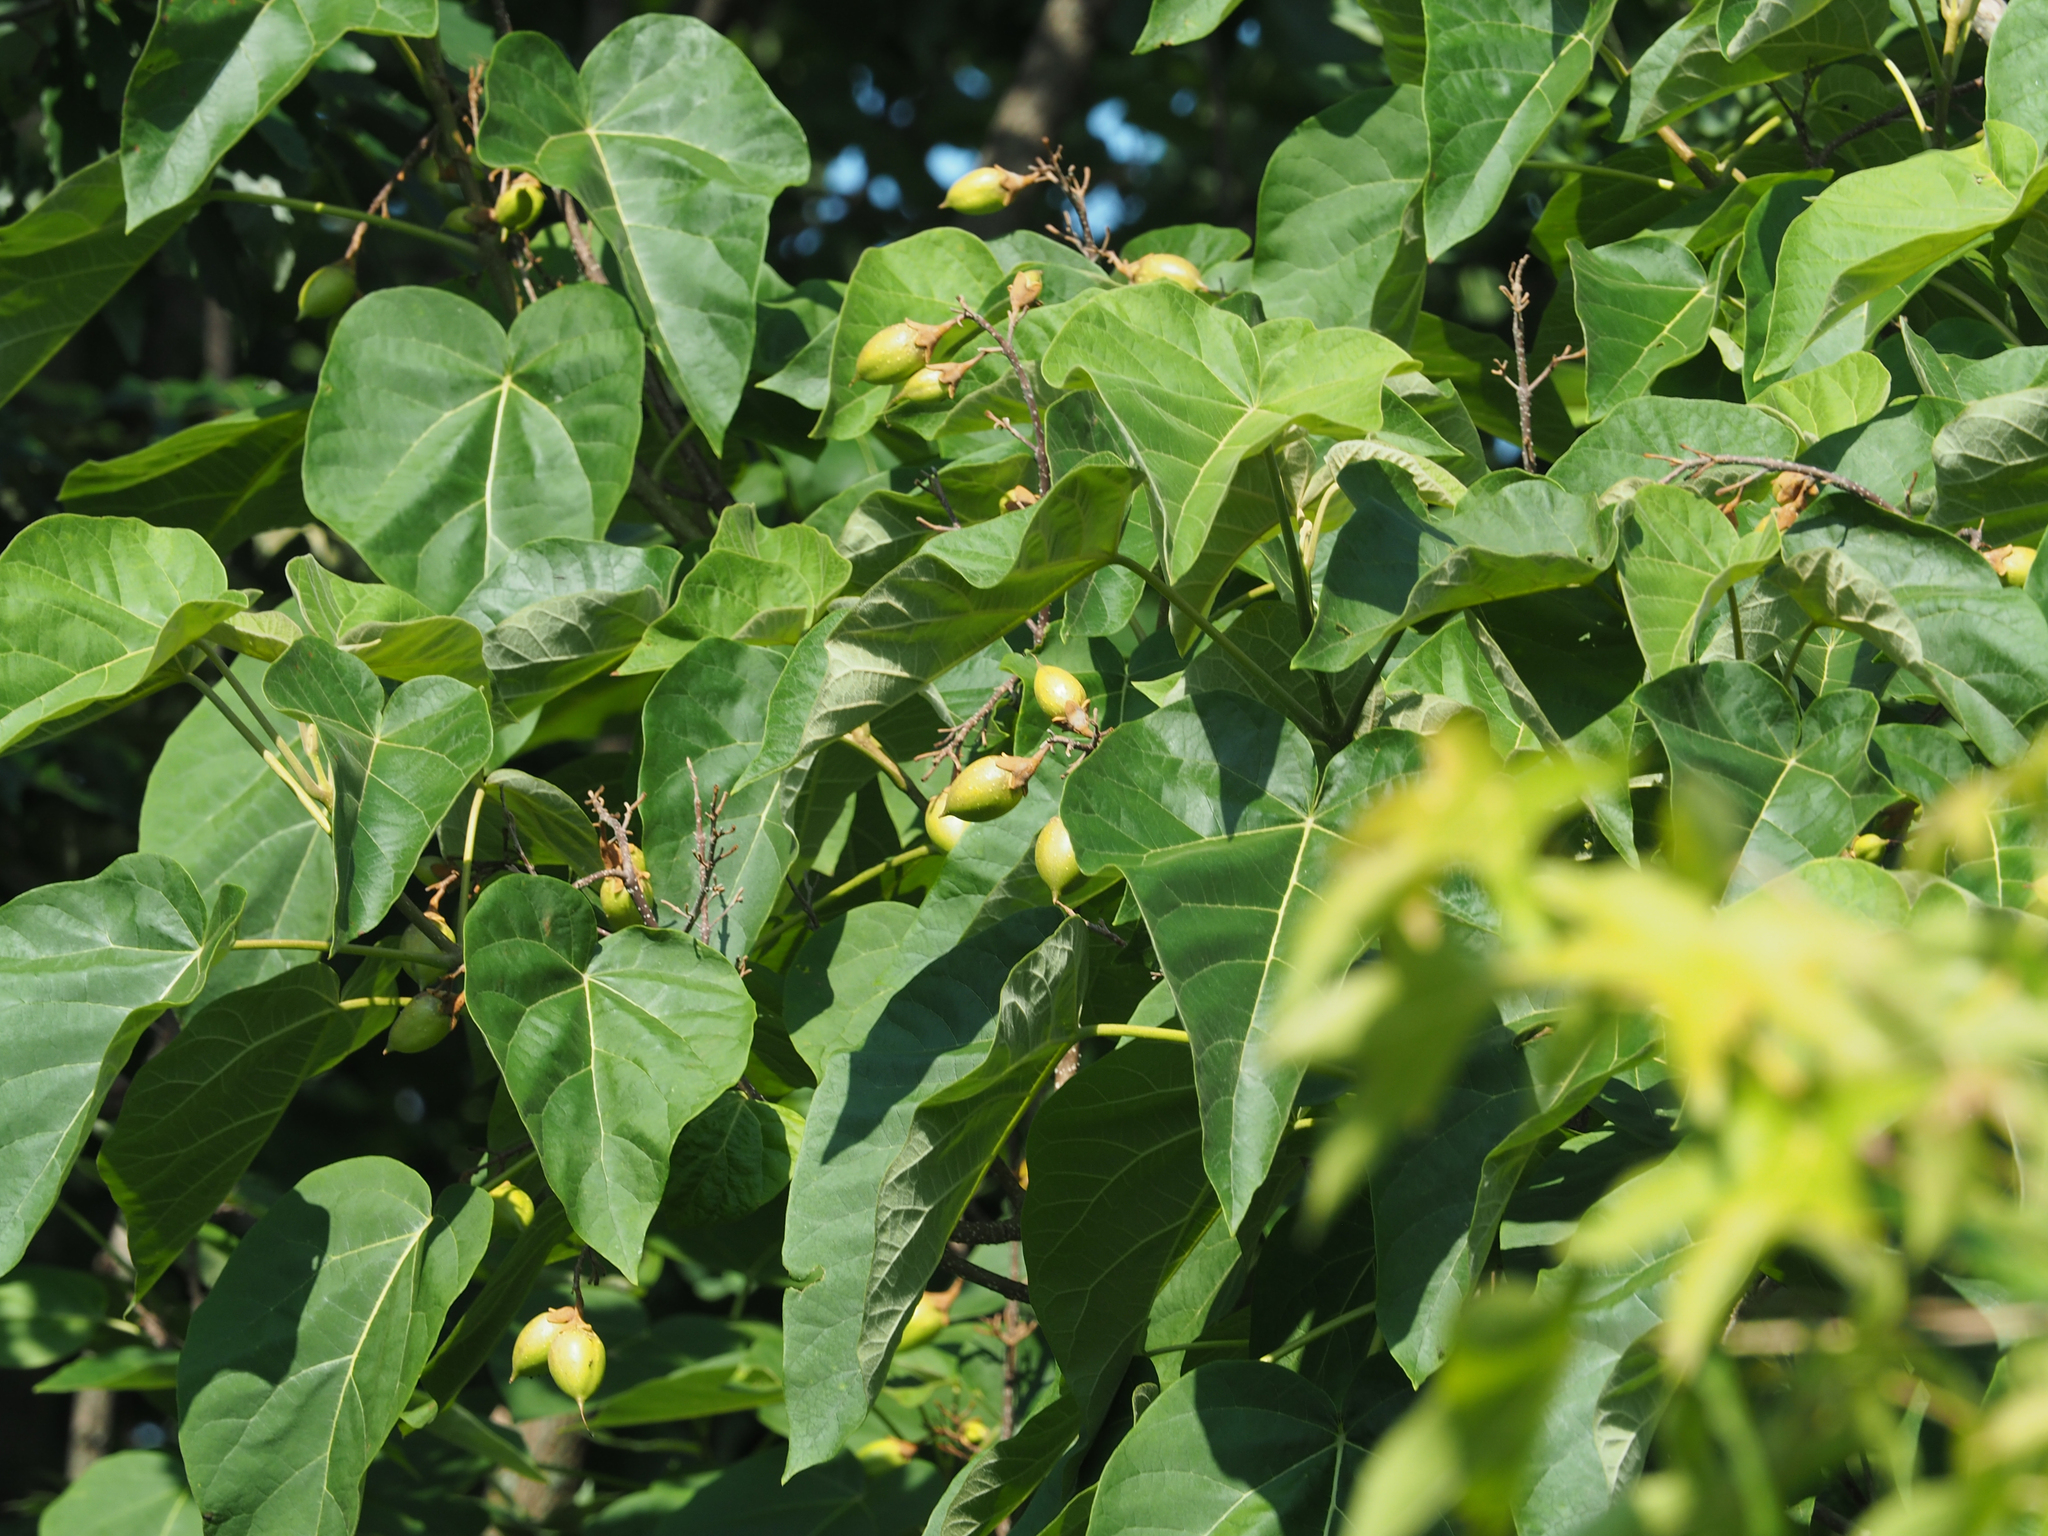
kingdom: Plantae
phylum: Tracheophyta
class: Magnoliopsida
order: Lamiales
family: Paulowniaceae
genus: Paulownia
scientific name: Paulownia tomentosa
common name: Foxglove-tree
